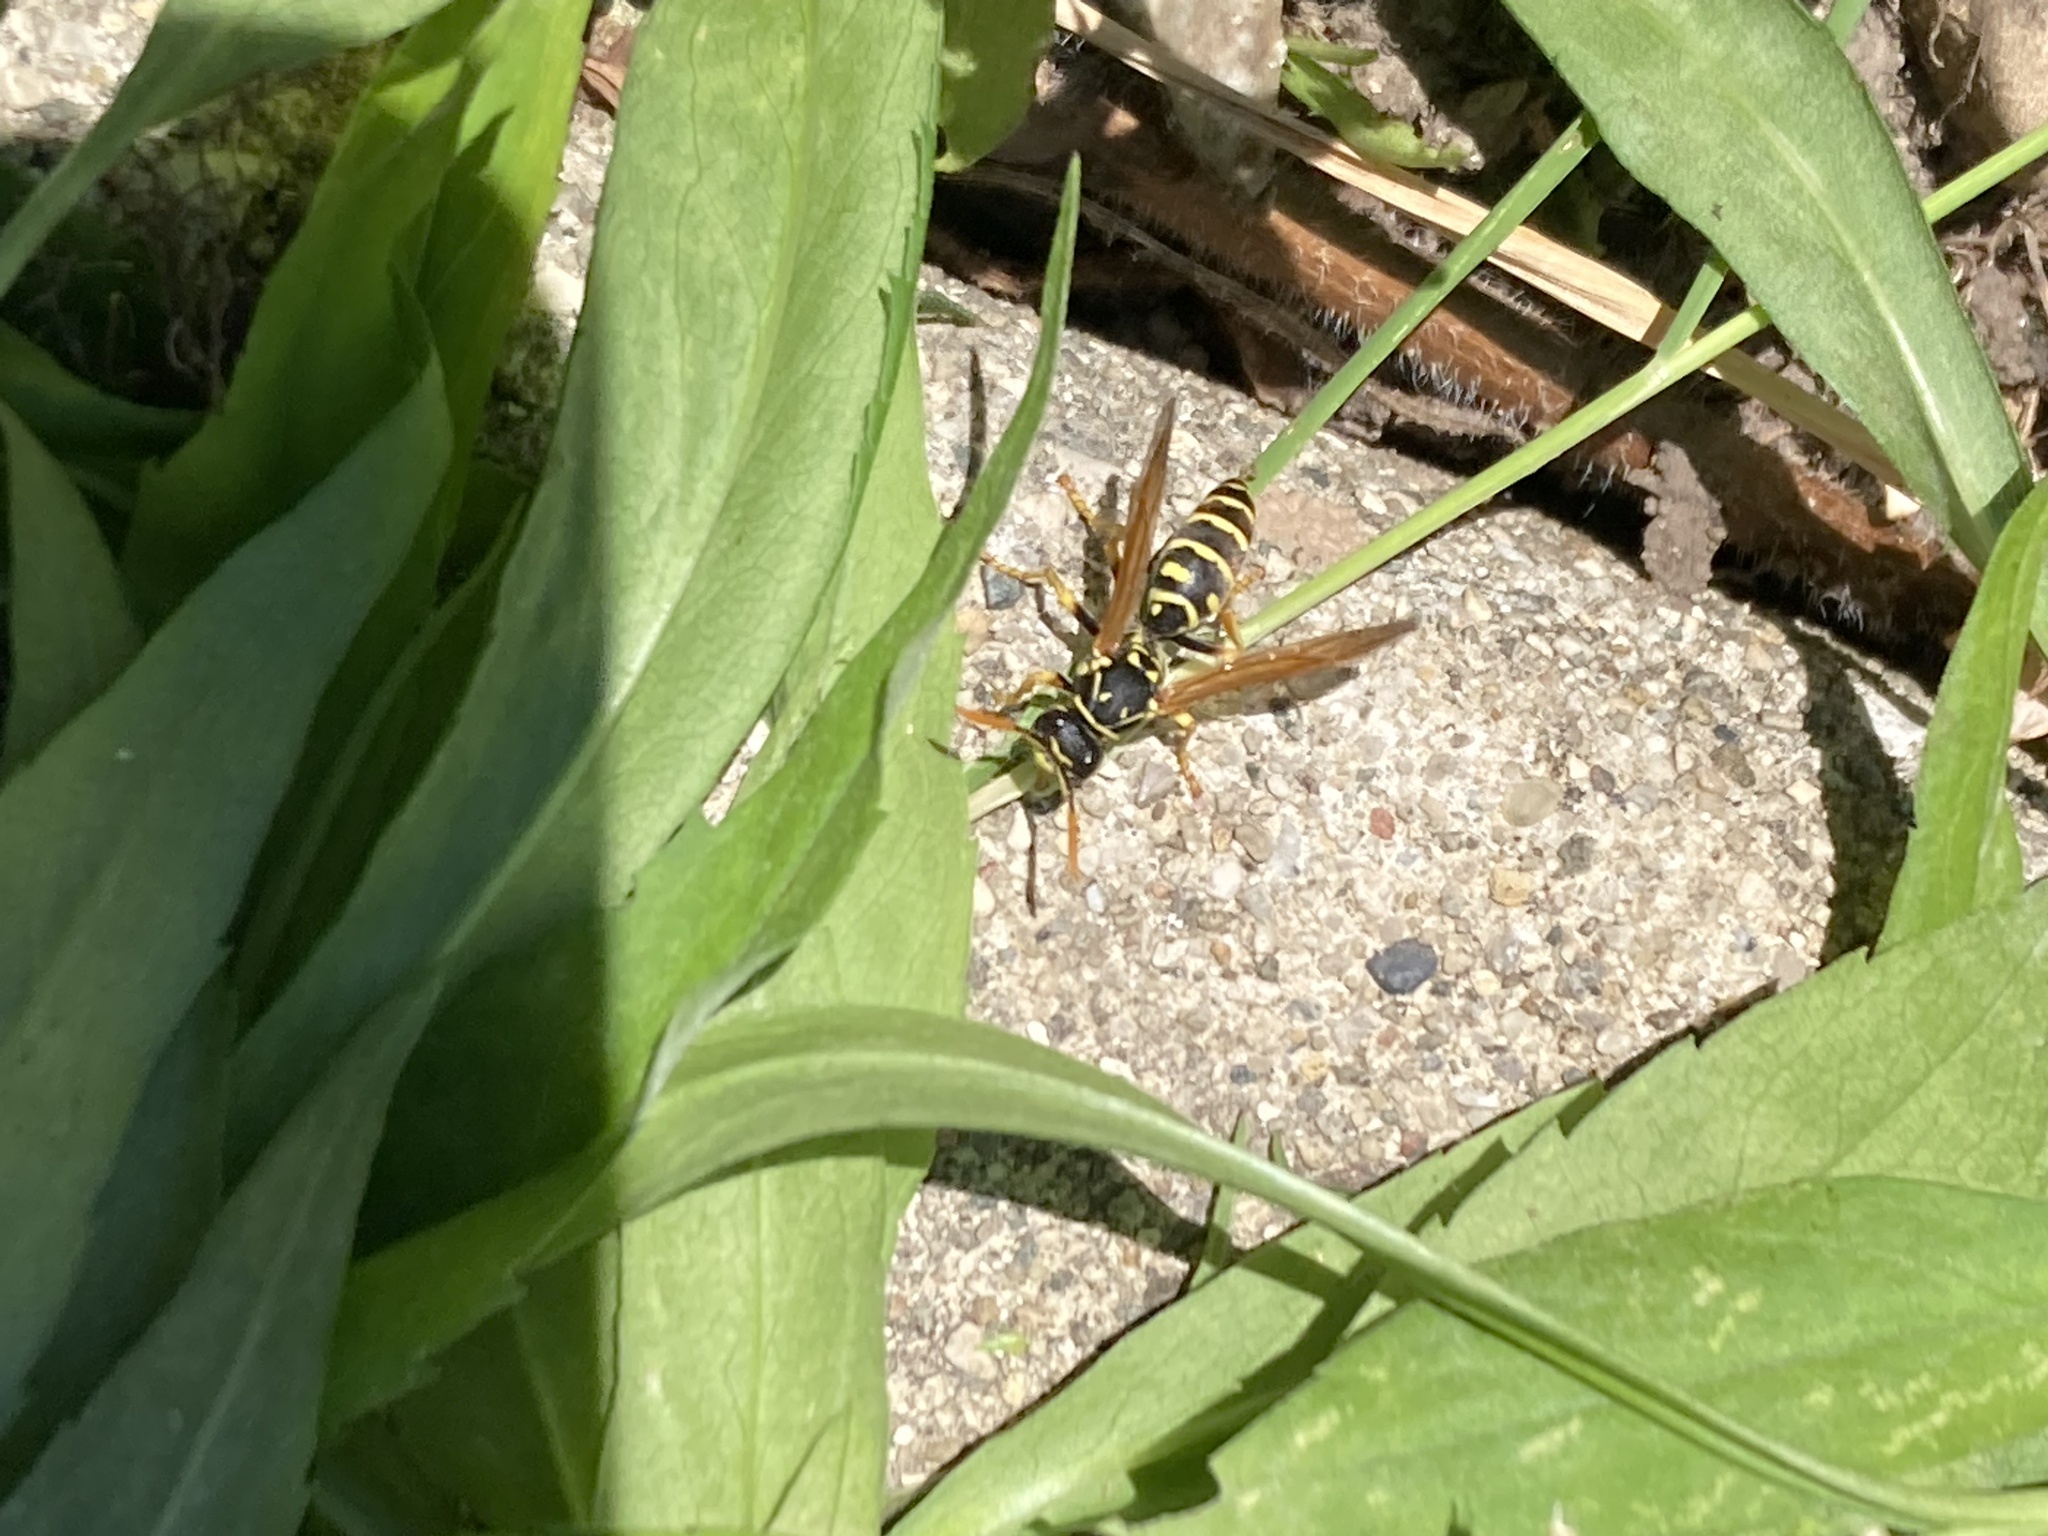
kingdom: Animalia
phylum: Arthropoda
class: Insecta
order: Hymenoptera
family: Eumenidae
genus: Polistes
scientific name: Polistes dominula
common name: Paper wasp
